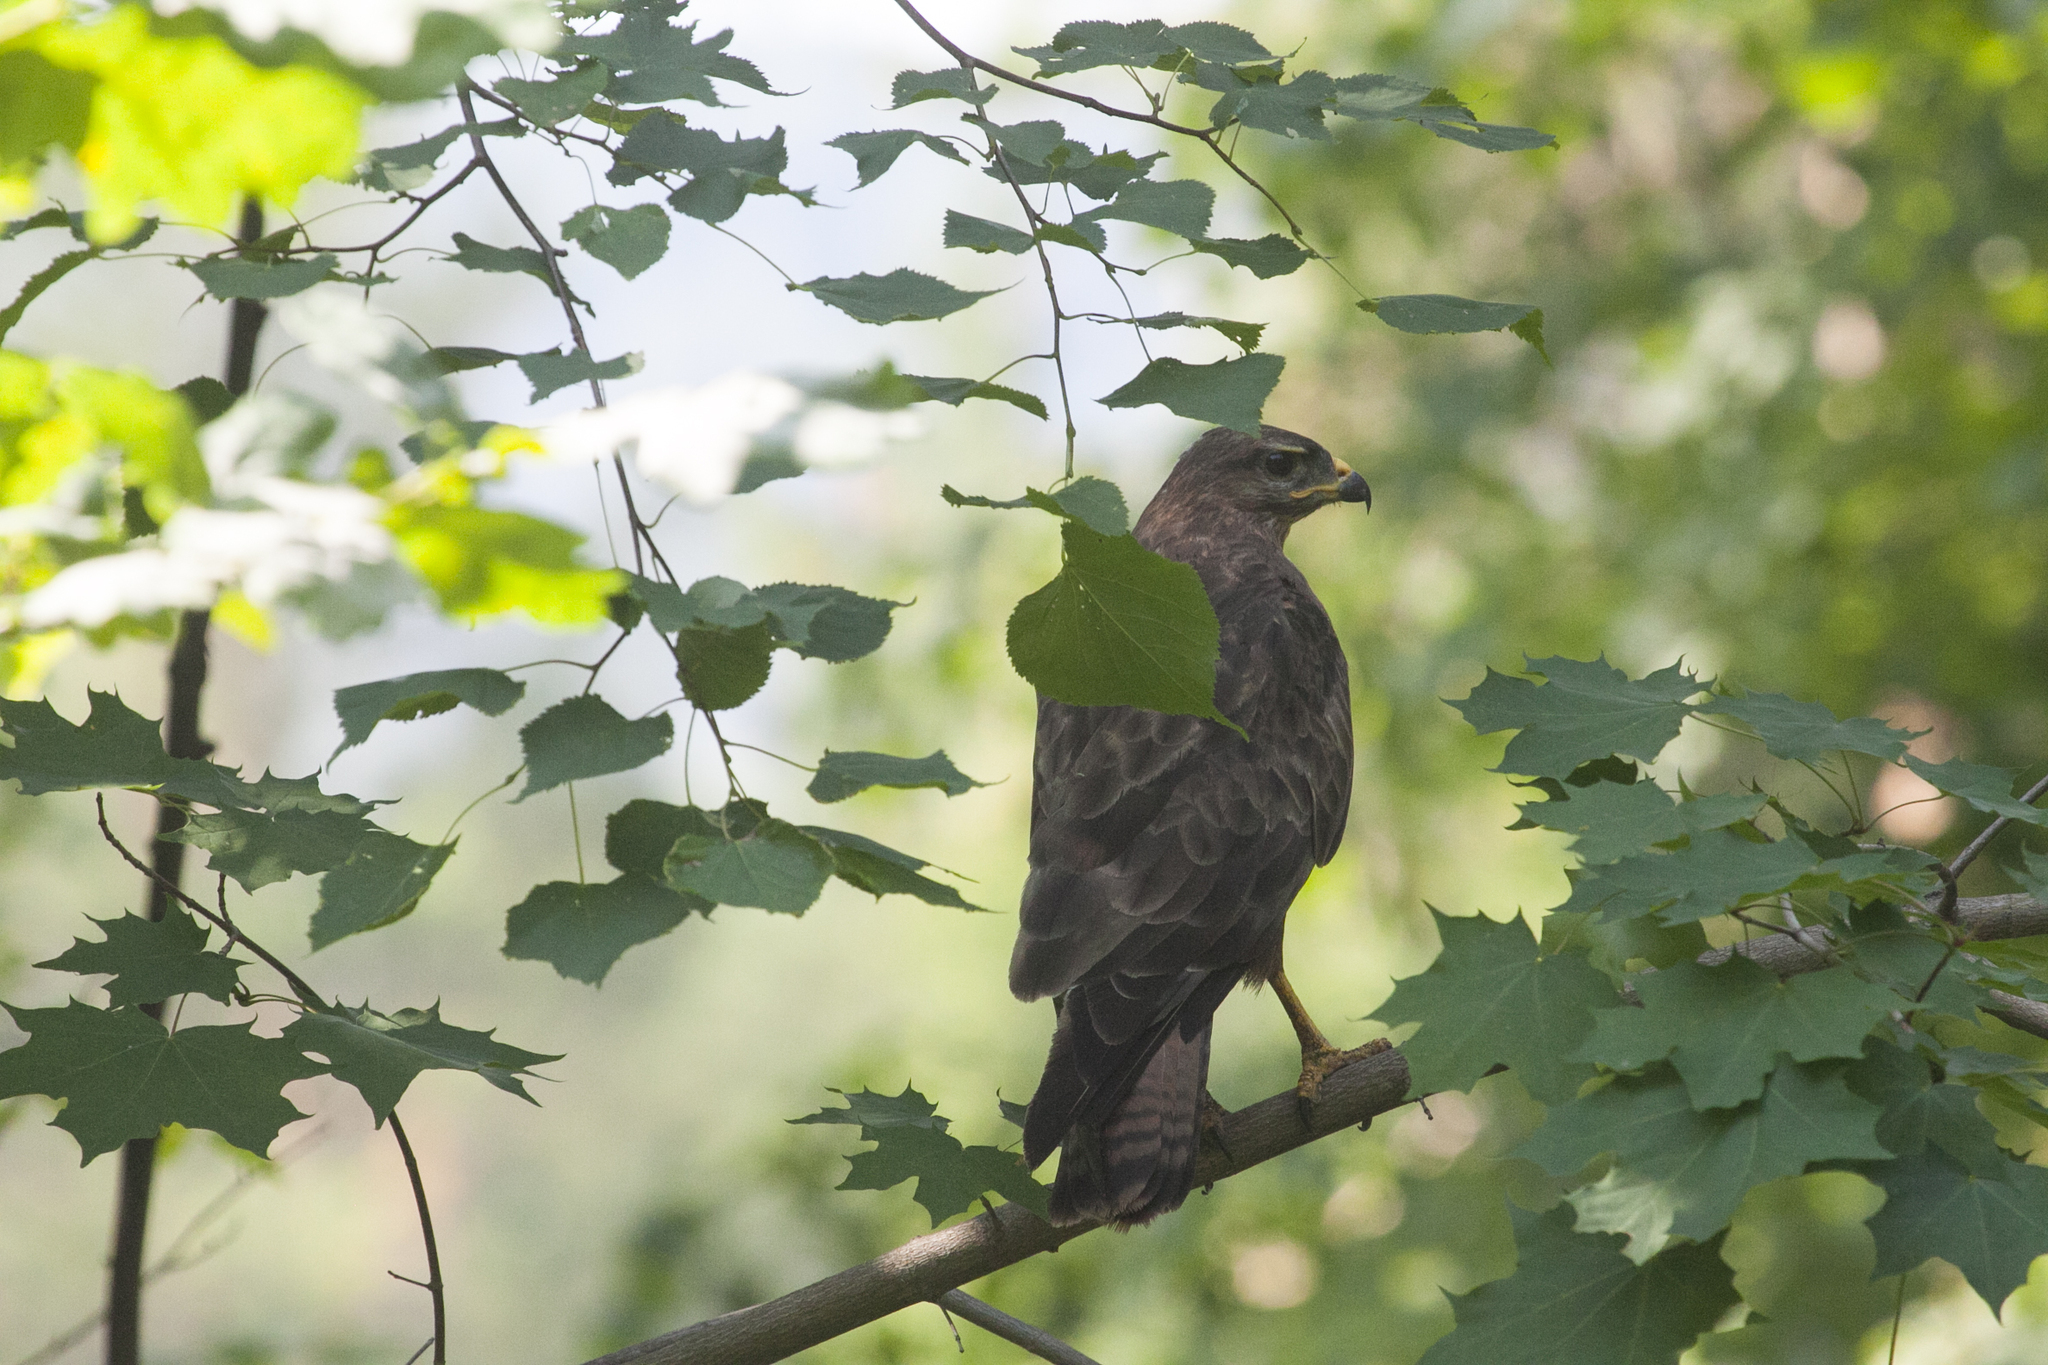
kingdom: Animalia
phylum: Chordata
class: Aves
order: Accipitriformes
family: Accipitridae
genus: Buteo
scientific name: Buteo buteo
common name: Common buzzard
